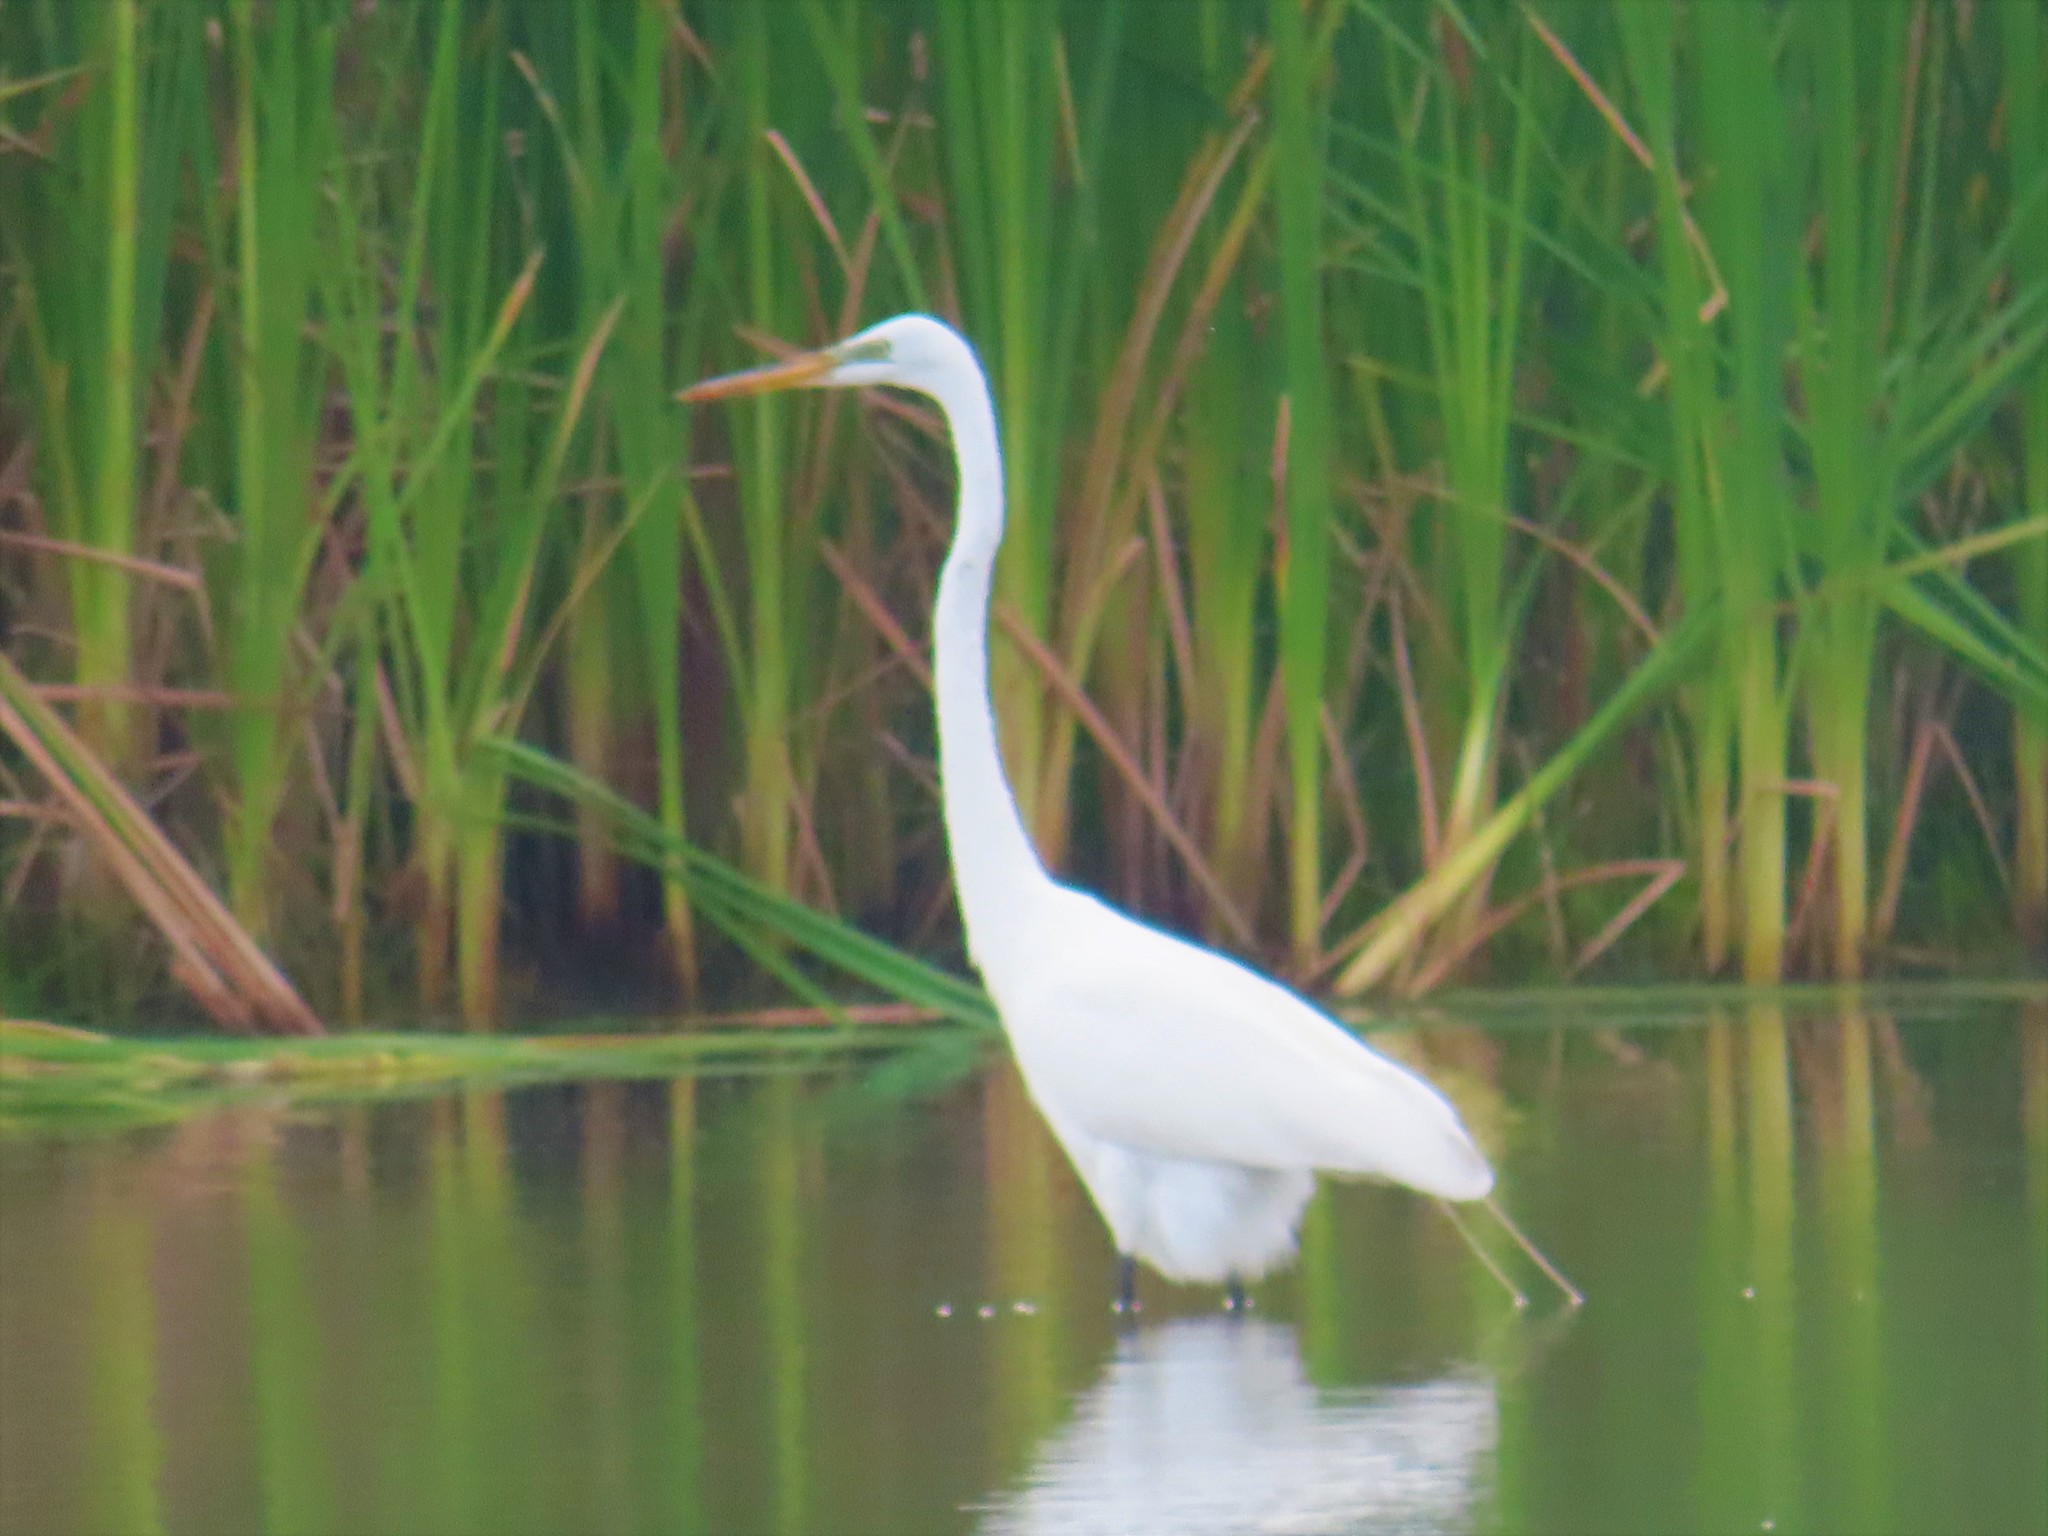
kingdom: Animalia
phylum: Chordata
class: Aves
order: Pelecaniformes
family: Ardeidae
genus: Ardea
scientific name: Ardea alba
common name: Great egret
